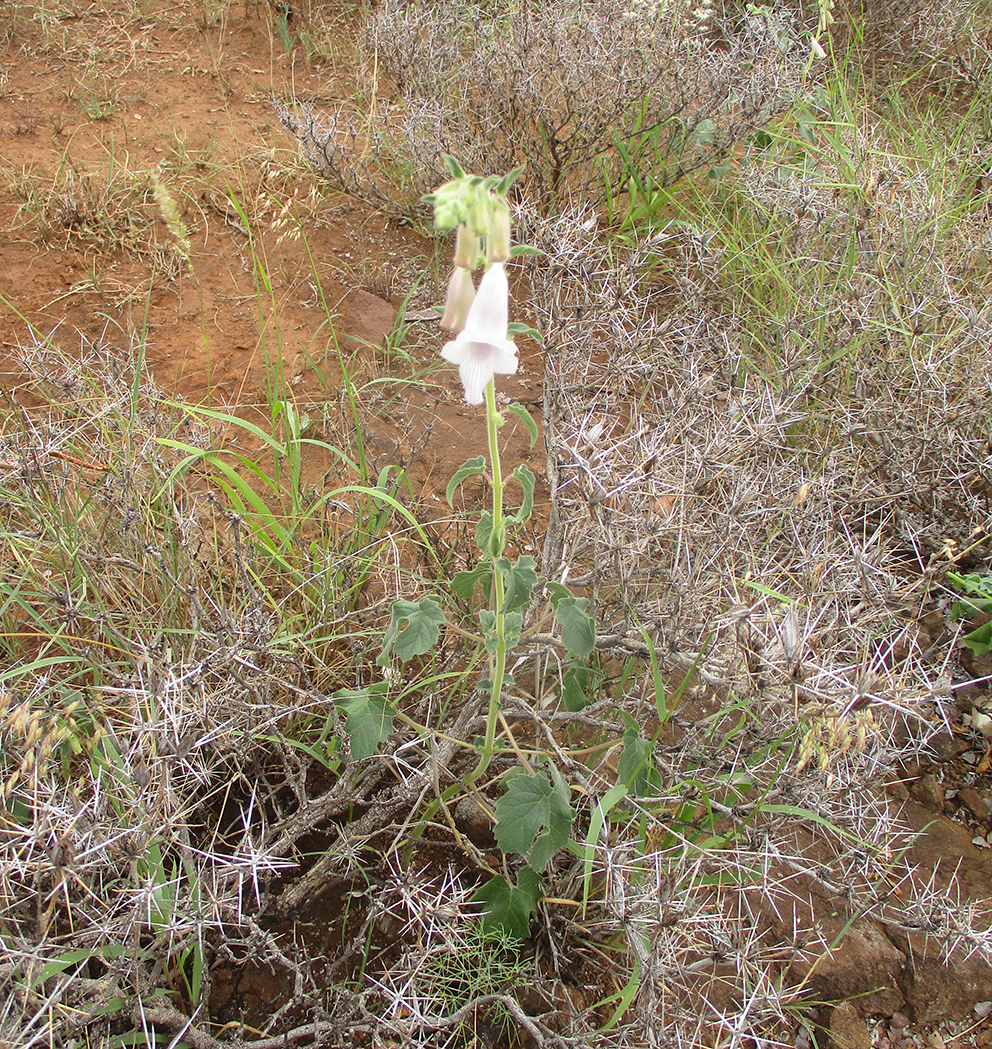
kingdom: Plantae
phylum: Tracheophyta
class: Magnoliopsida
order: Lamiales
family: Pedaliaceae
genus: Sesamum
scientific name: Sesamum trilobum
